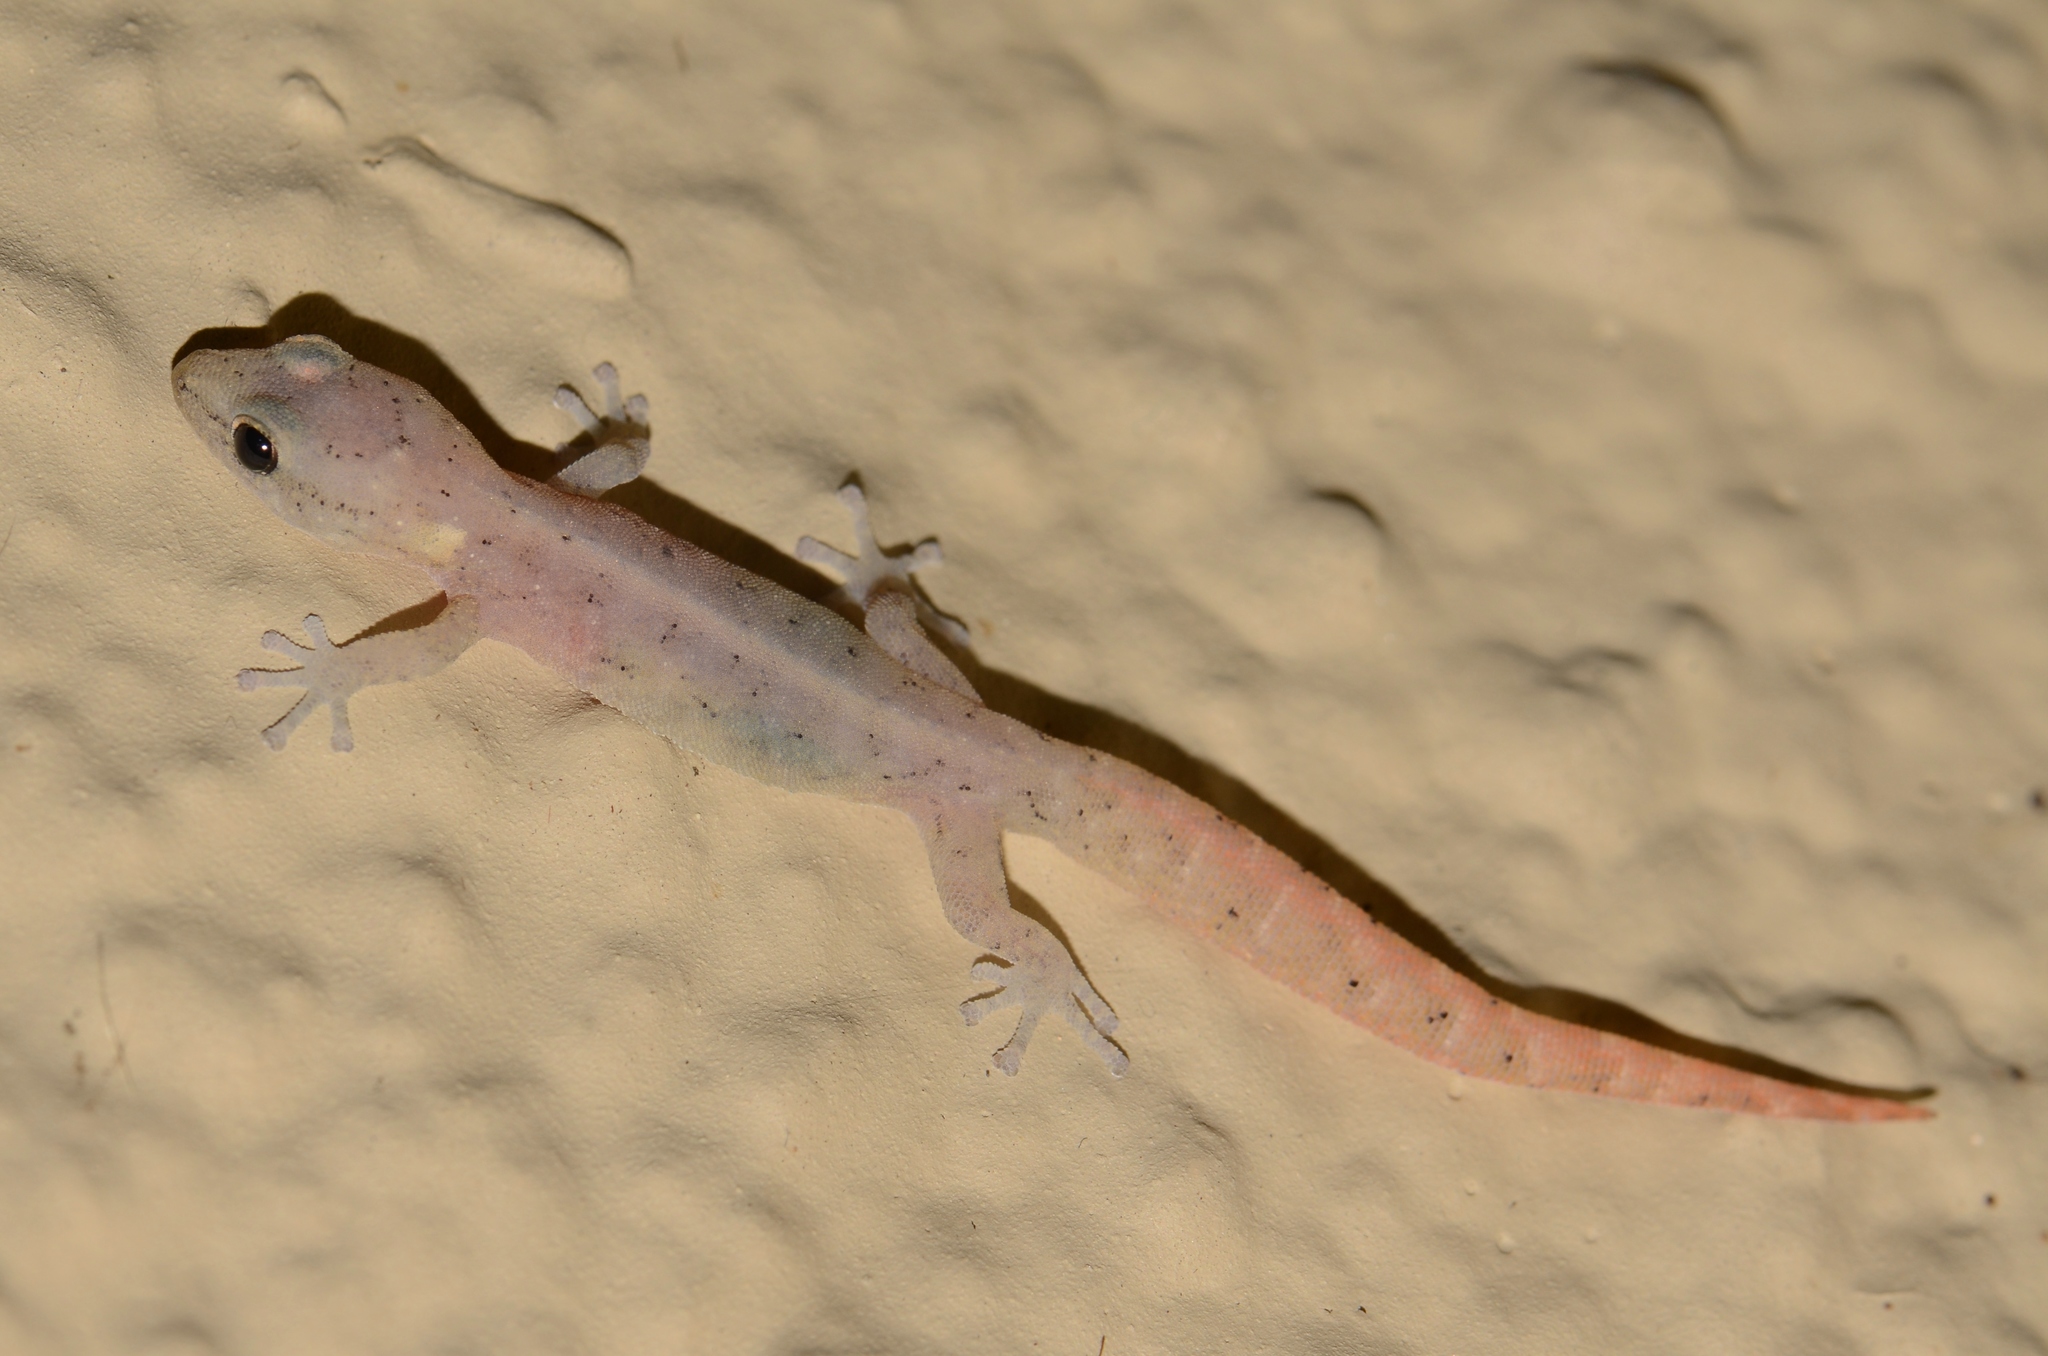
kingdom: Animalia
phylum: Chordata
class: Squamata
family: Gekkonidae
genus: Afrogecko
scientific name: Afrogecko porphyreus
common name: Marbled leaf-toed gecko
